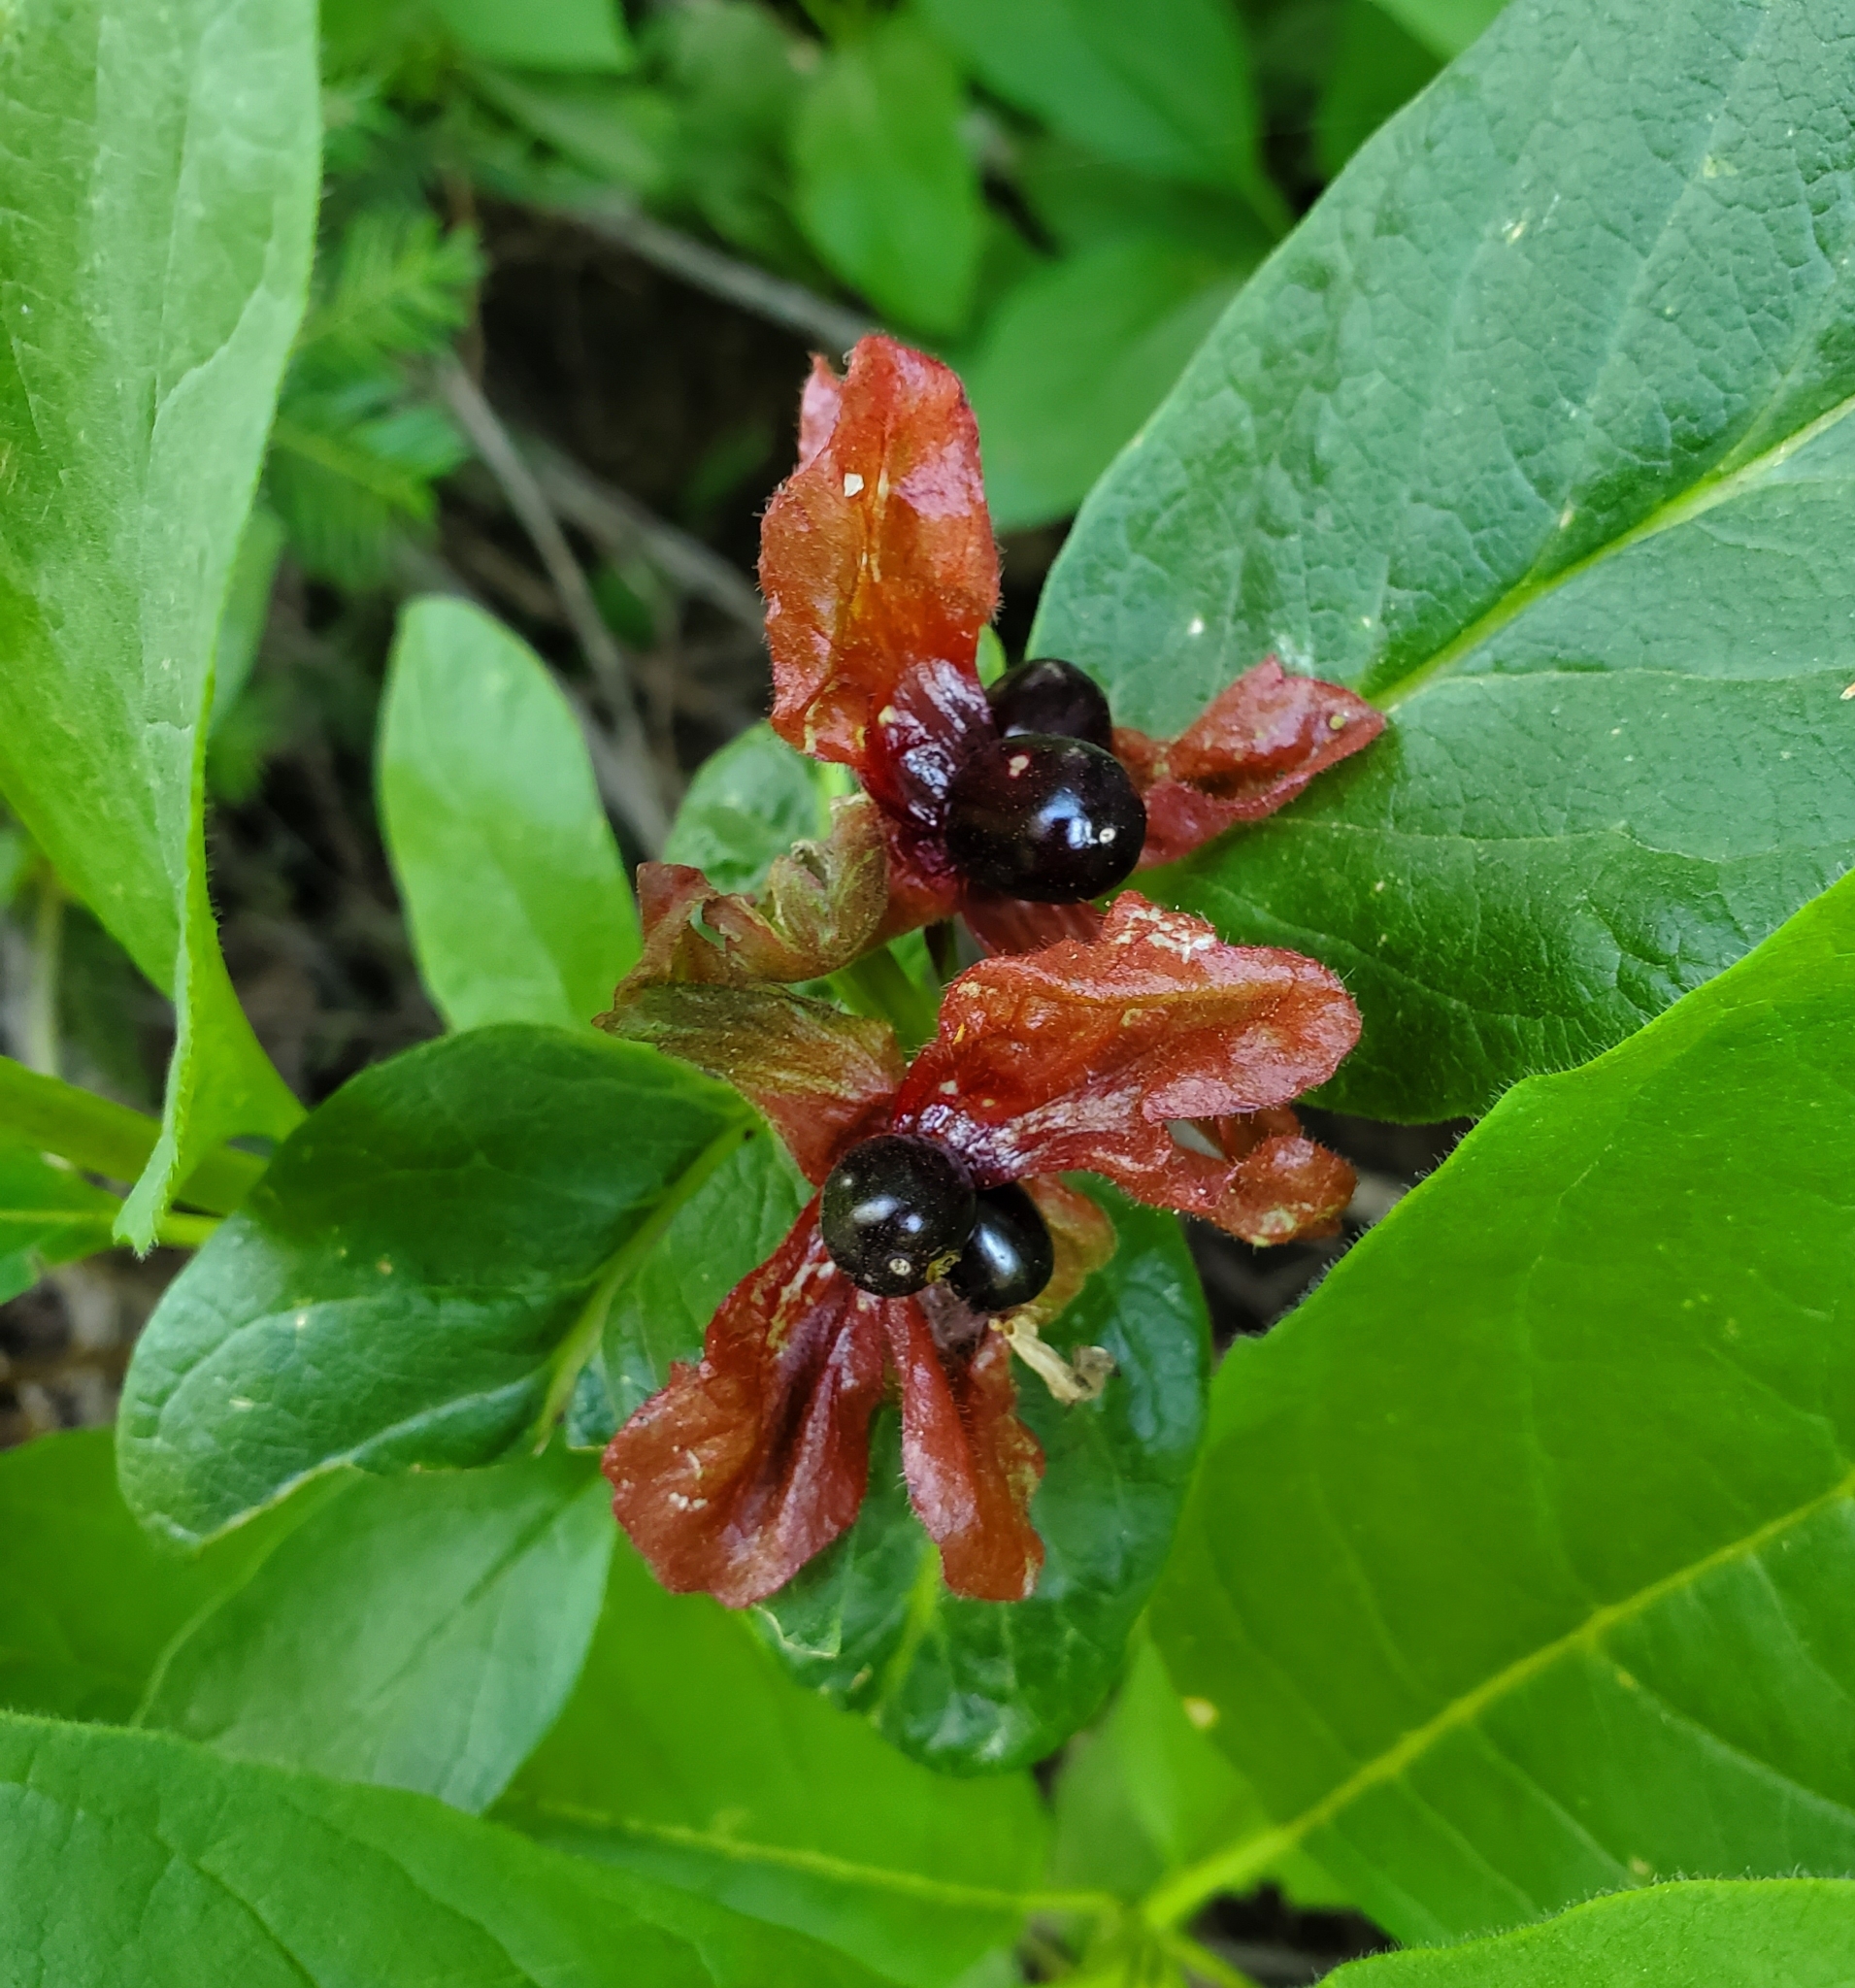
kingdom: Plantae
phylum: Tracheophyta
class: Magnoliopsida
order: Dipsacales
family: Caprifoliaceae
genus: Lonicera
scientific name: Lonicera involucrata
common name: Californian honeysuckle
